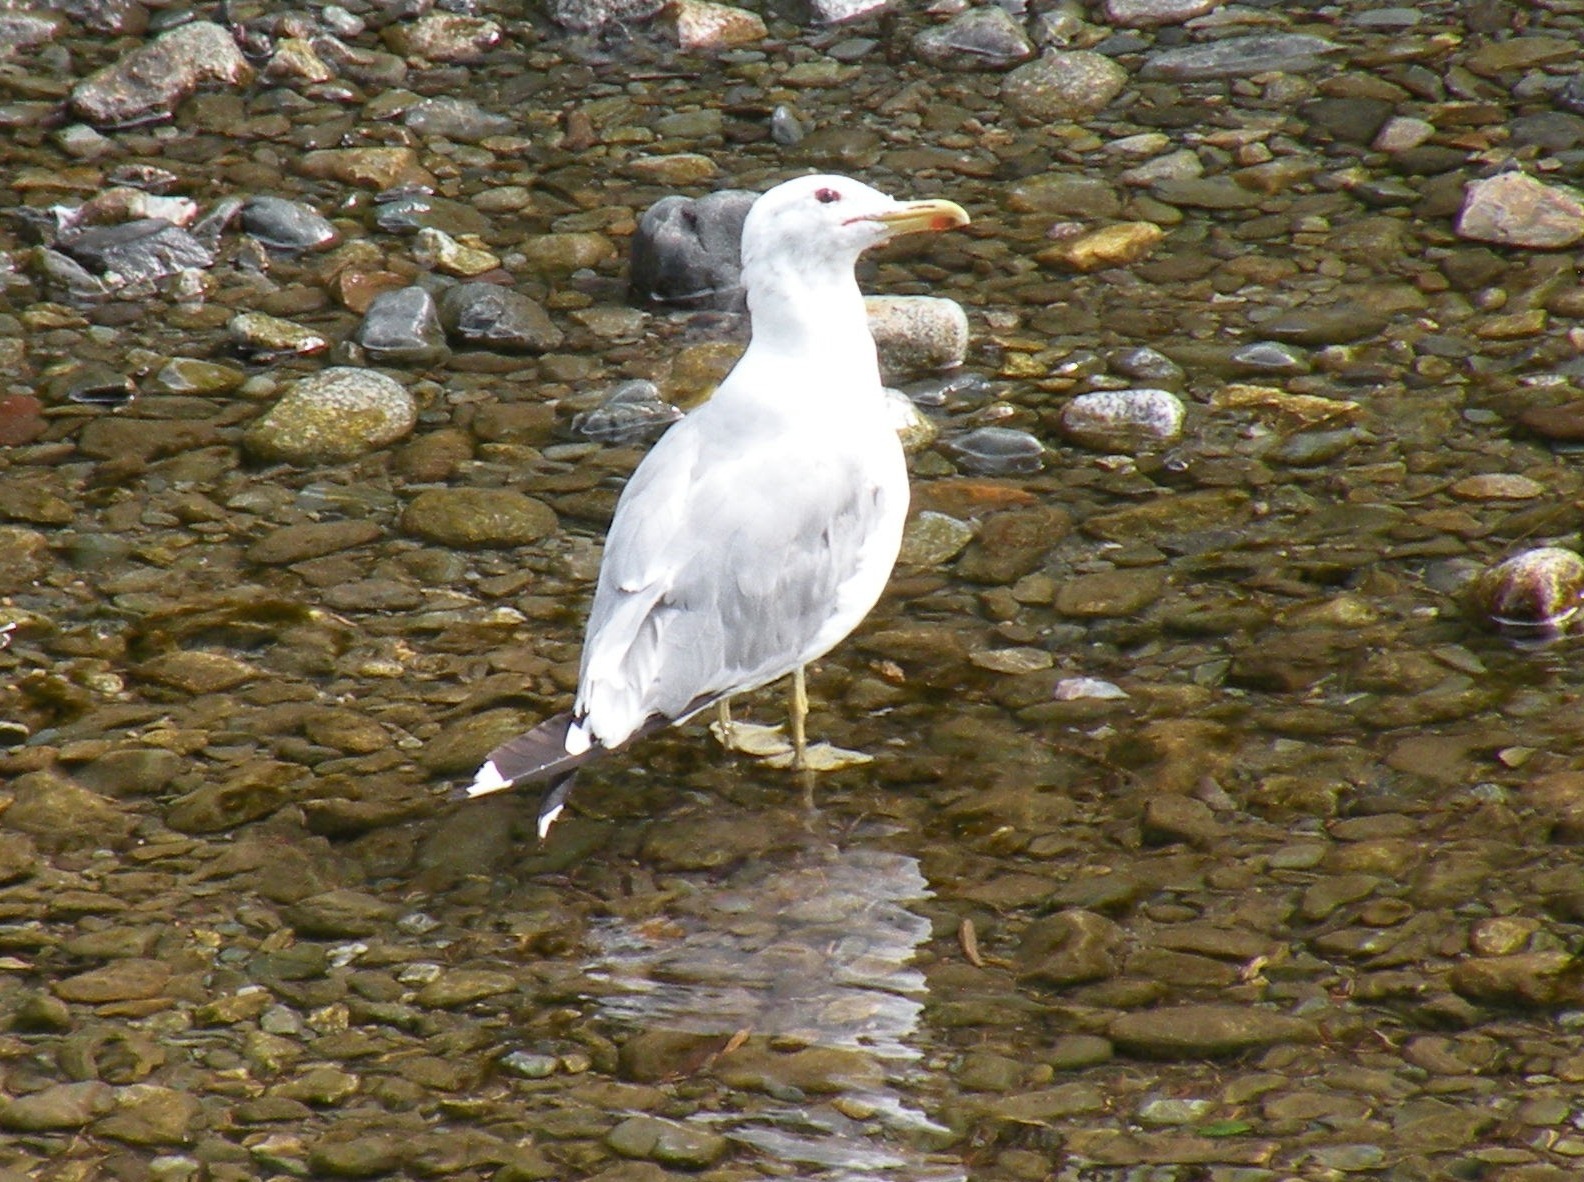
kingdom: Animalia
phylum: Chordata
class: Aves
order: Charadriiformes
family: Laridae
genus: Larus
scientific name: Larus californicus
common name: California gull
